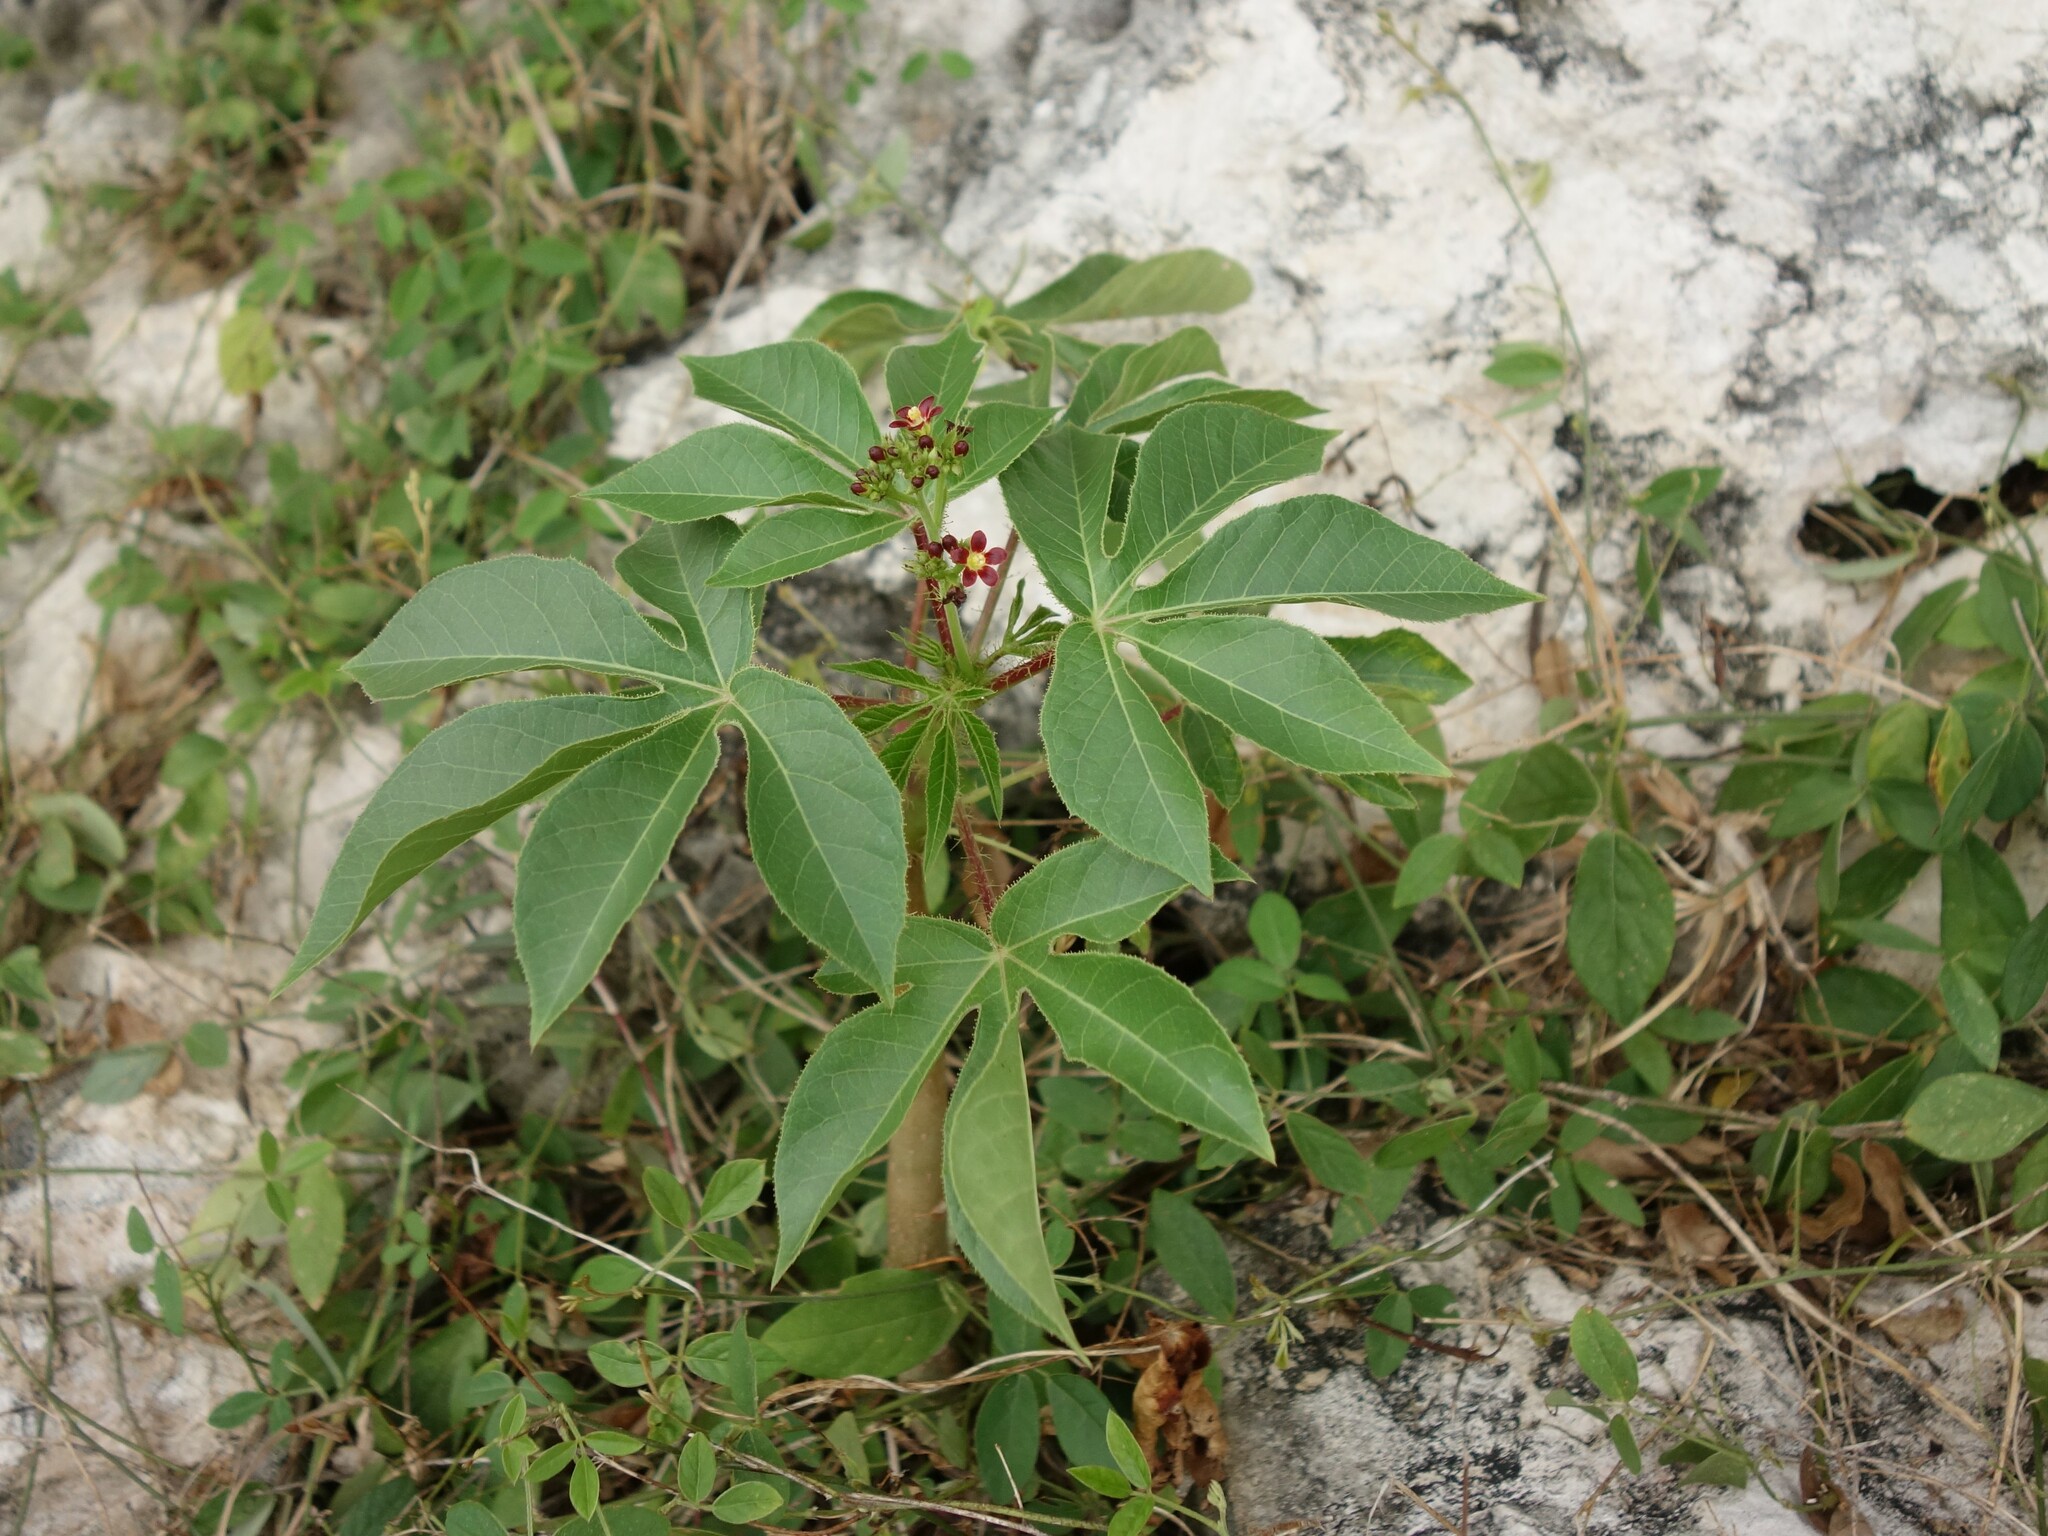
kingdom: Plantae
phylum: Tracheophyta
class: Magnoliopsida
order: Malpighiales
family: Euphorbiaceae
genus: Jatropha
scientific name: Jatropha gossypiifolia
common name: Bellyache bush
